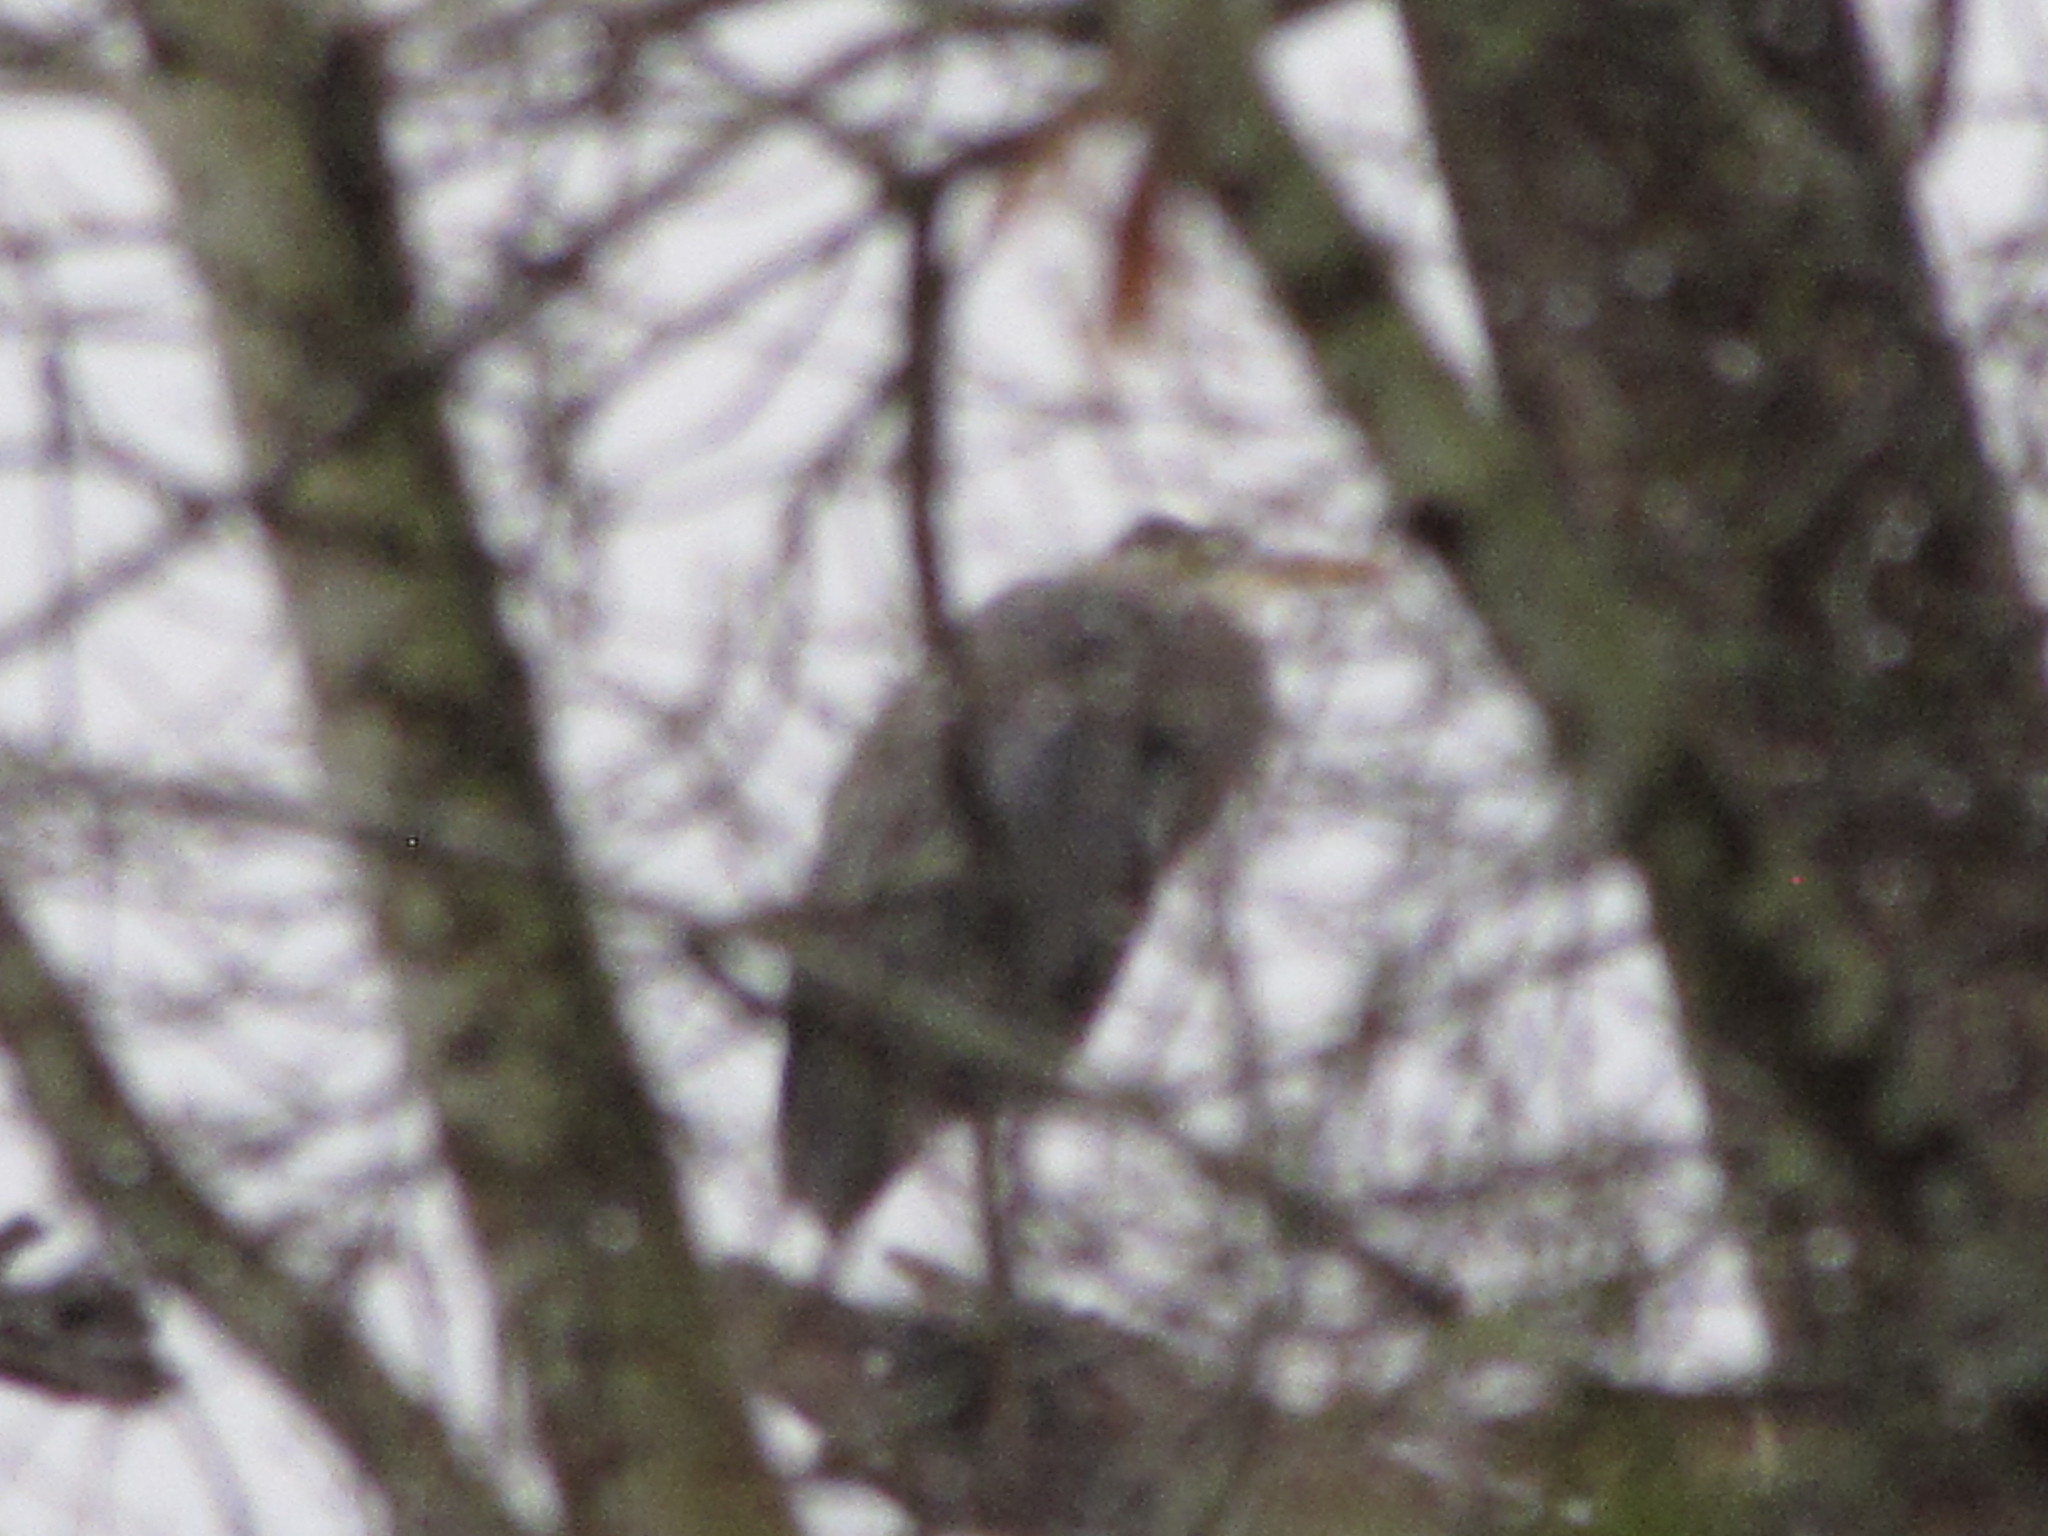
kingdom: Animalia
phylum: Chordata
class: Aves
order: Pelecaniformes
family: Ardeidae
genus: Ardea
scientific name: Ardea herodias
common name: Great blue heron
